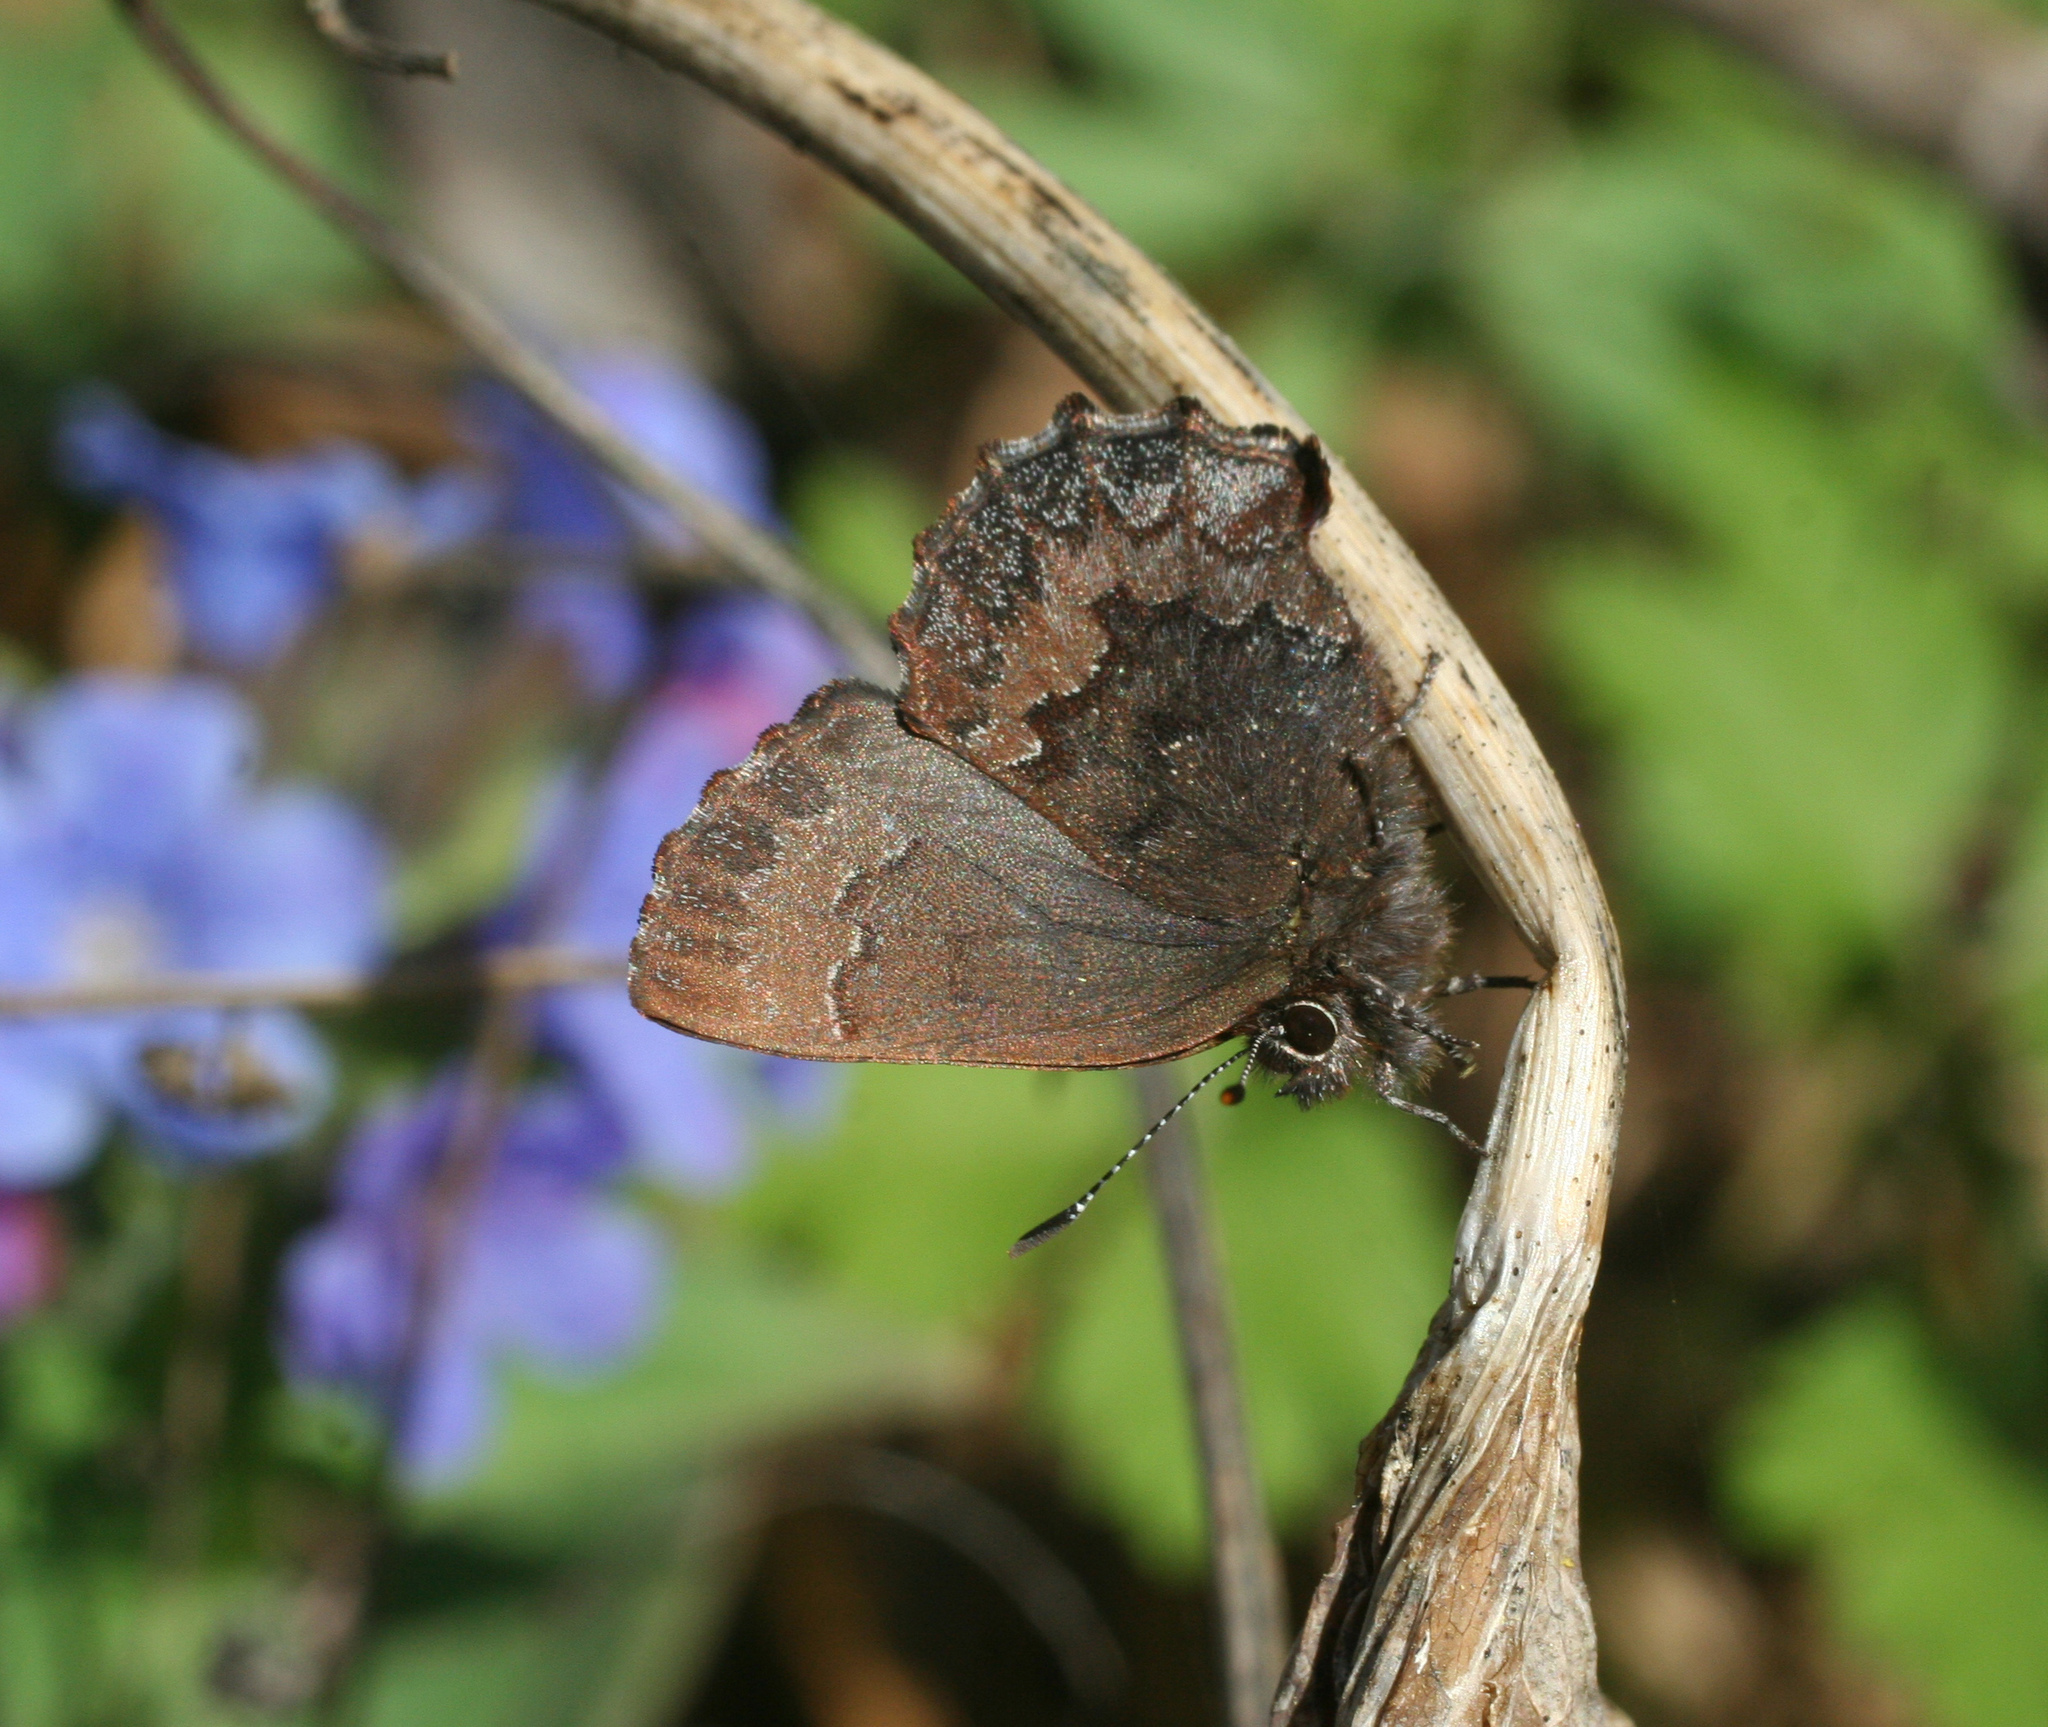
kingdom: Animalia
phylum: Arthropoda
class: Insecta
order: Lepidoptera
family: Lycaenidae
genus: Ginzia
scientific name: Ginzia Ahlbergia frivaldszkyi
